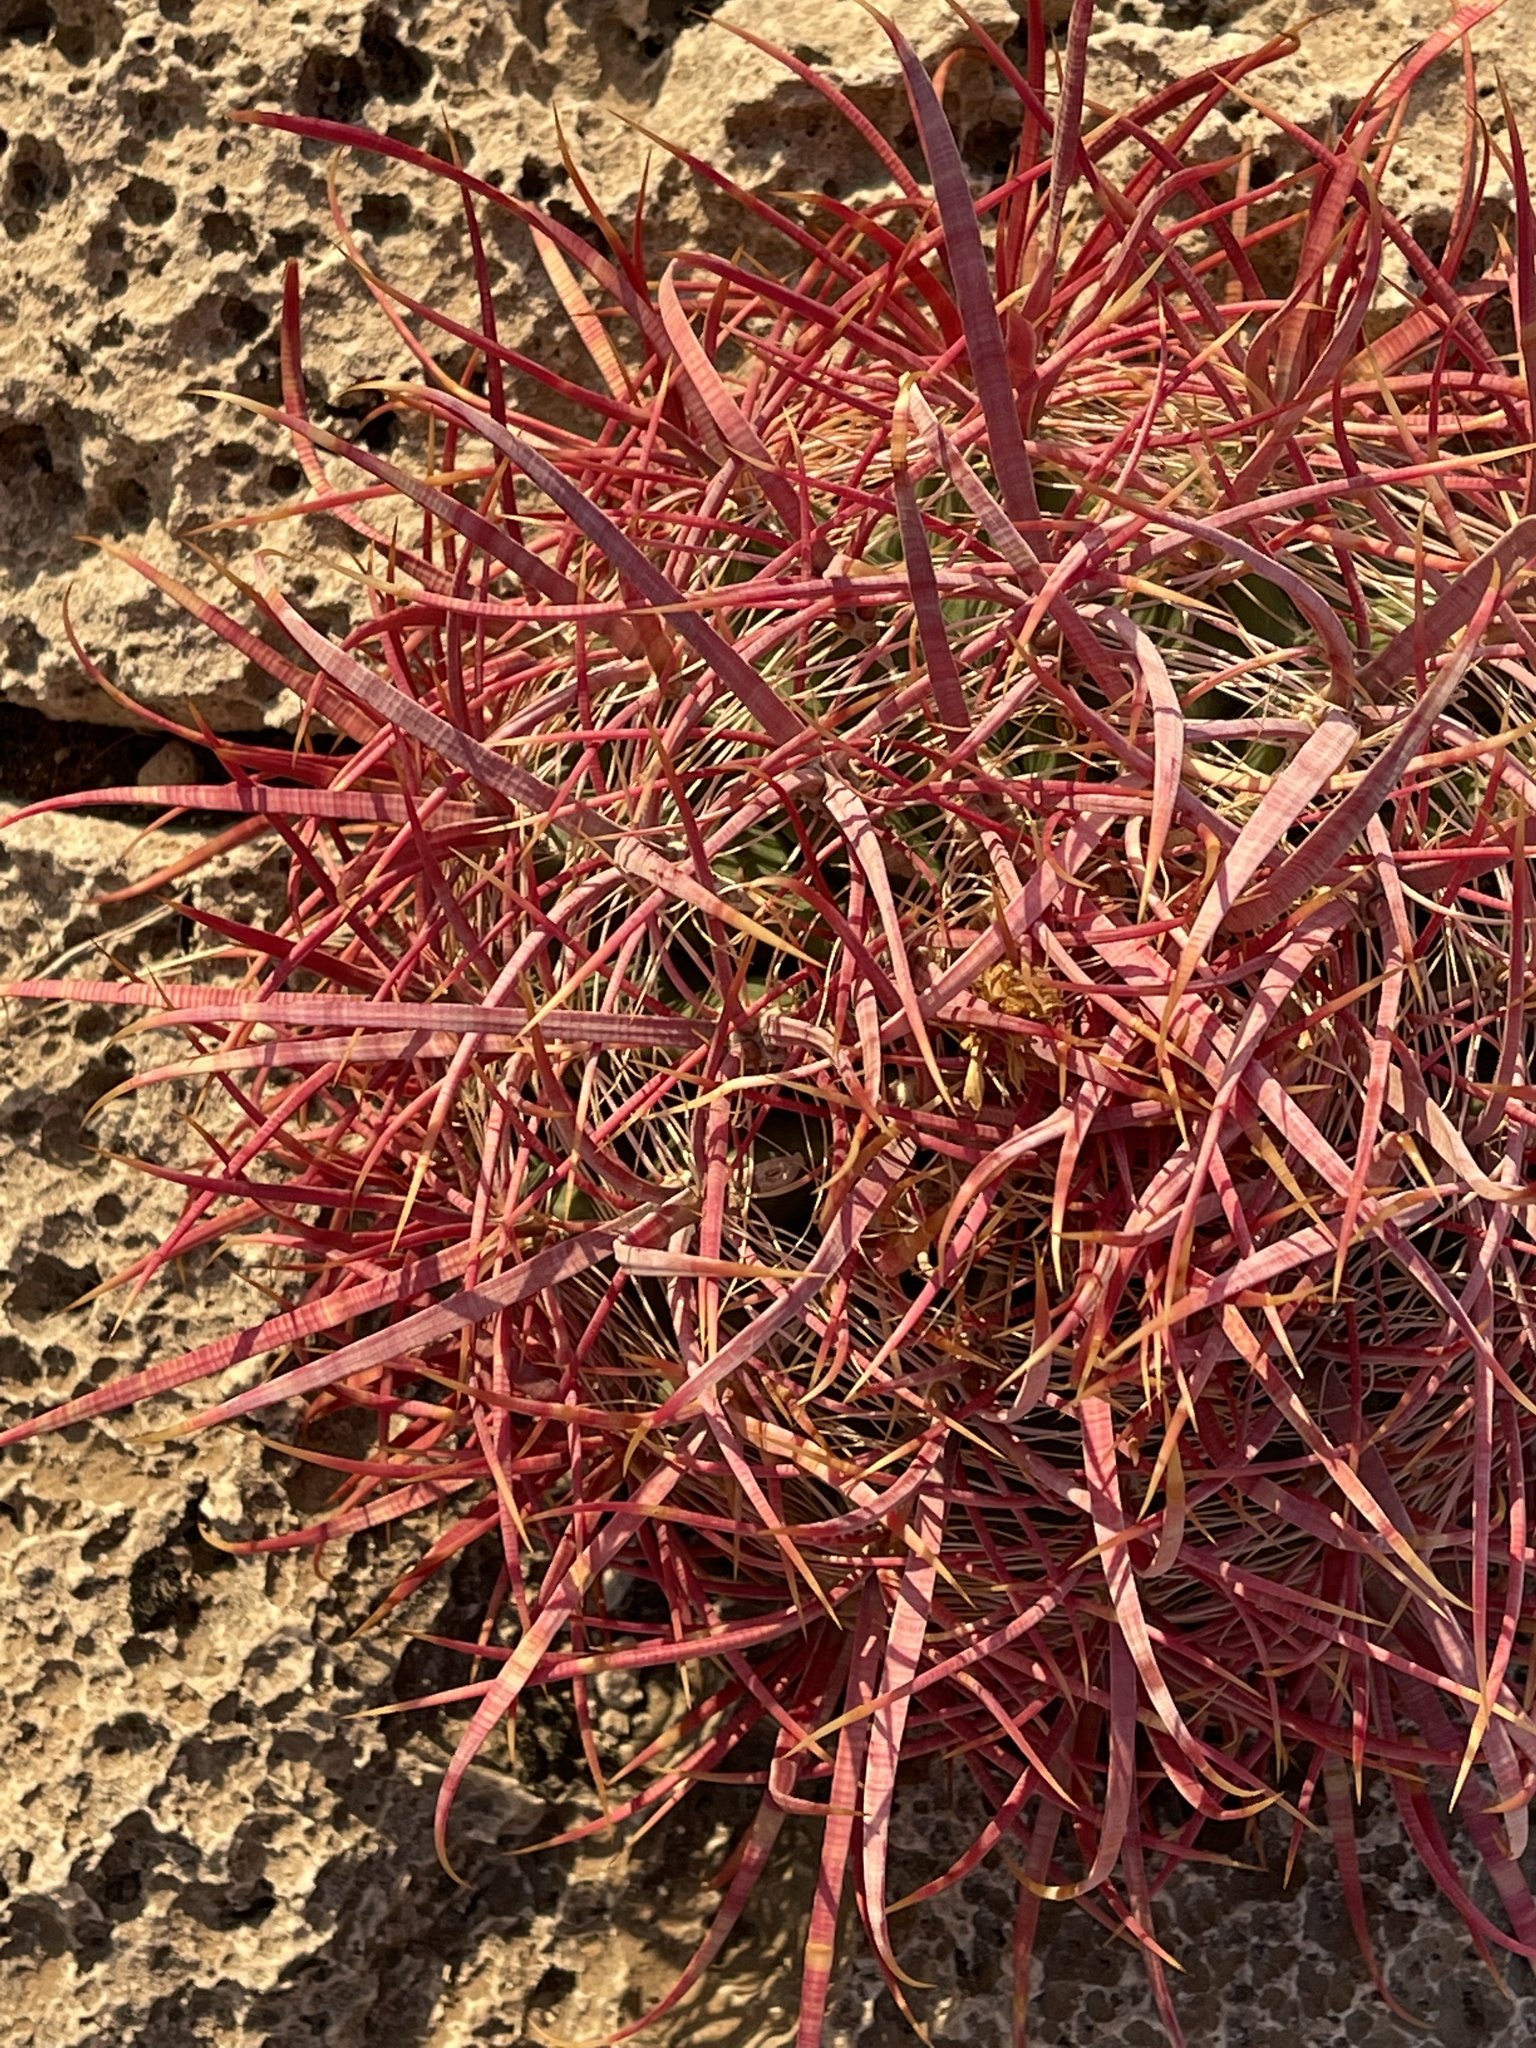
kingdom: Plantae
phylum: Tracheophyta
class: Magnoliopsida
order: Caryophyllales
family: Cactaceae
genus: Ferocactus
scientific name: Ferocactus cylindraceus
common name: California barrel cactus
